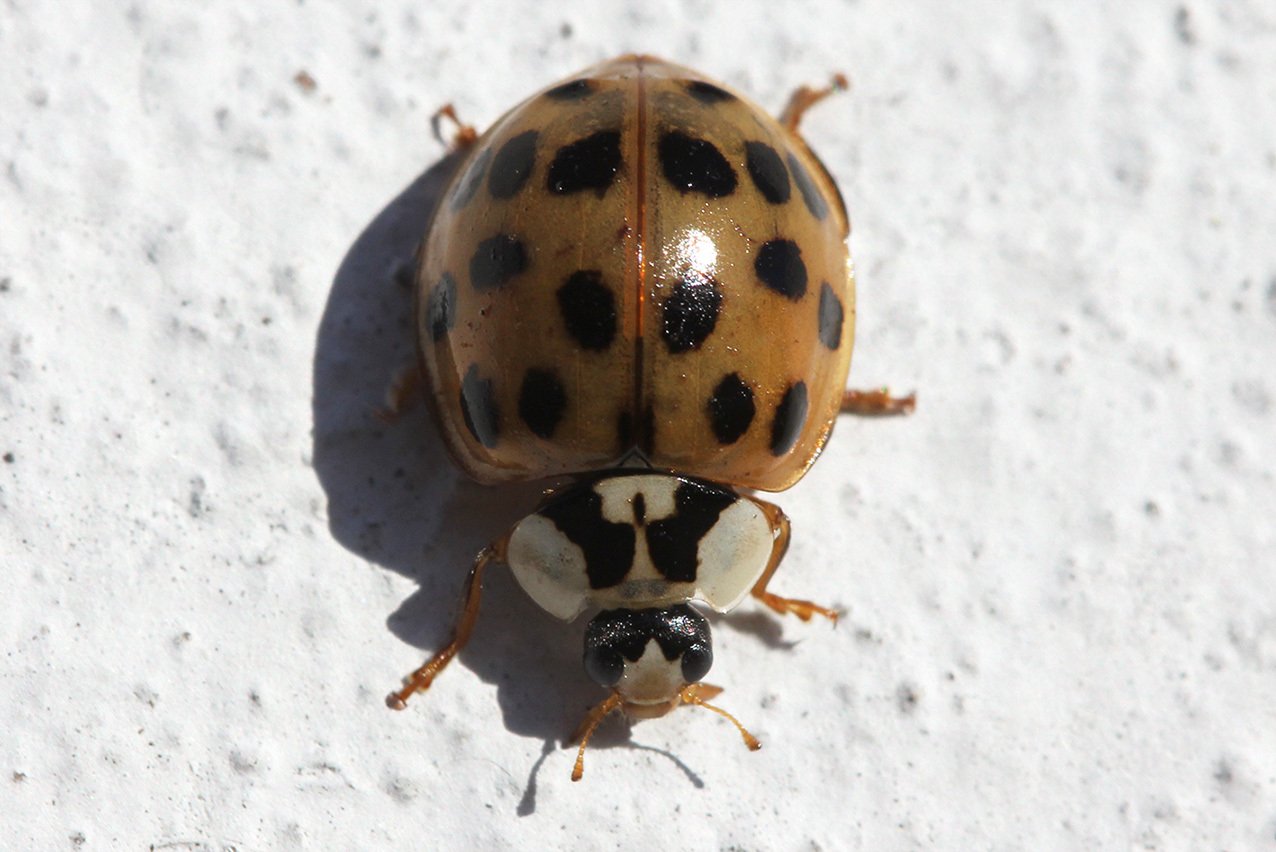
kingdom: Animalia
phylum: Arthropoda
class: Insecta
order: Coleoptera
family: Coccinellidae
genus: Harmonia
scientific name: Harmonia axyridis
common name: Harlequin ladybird
